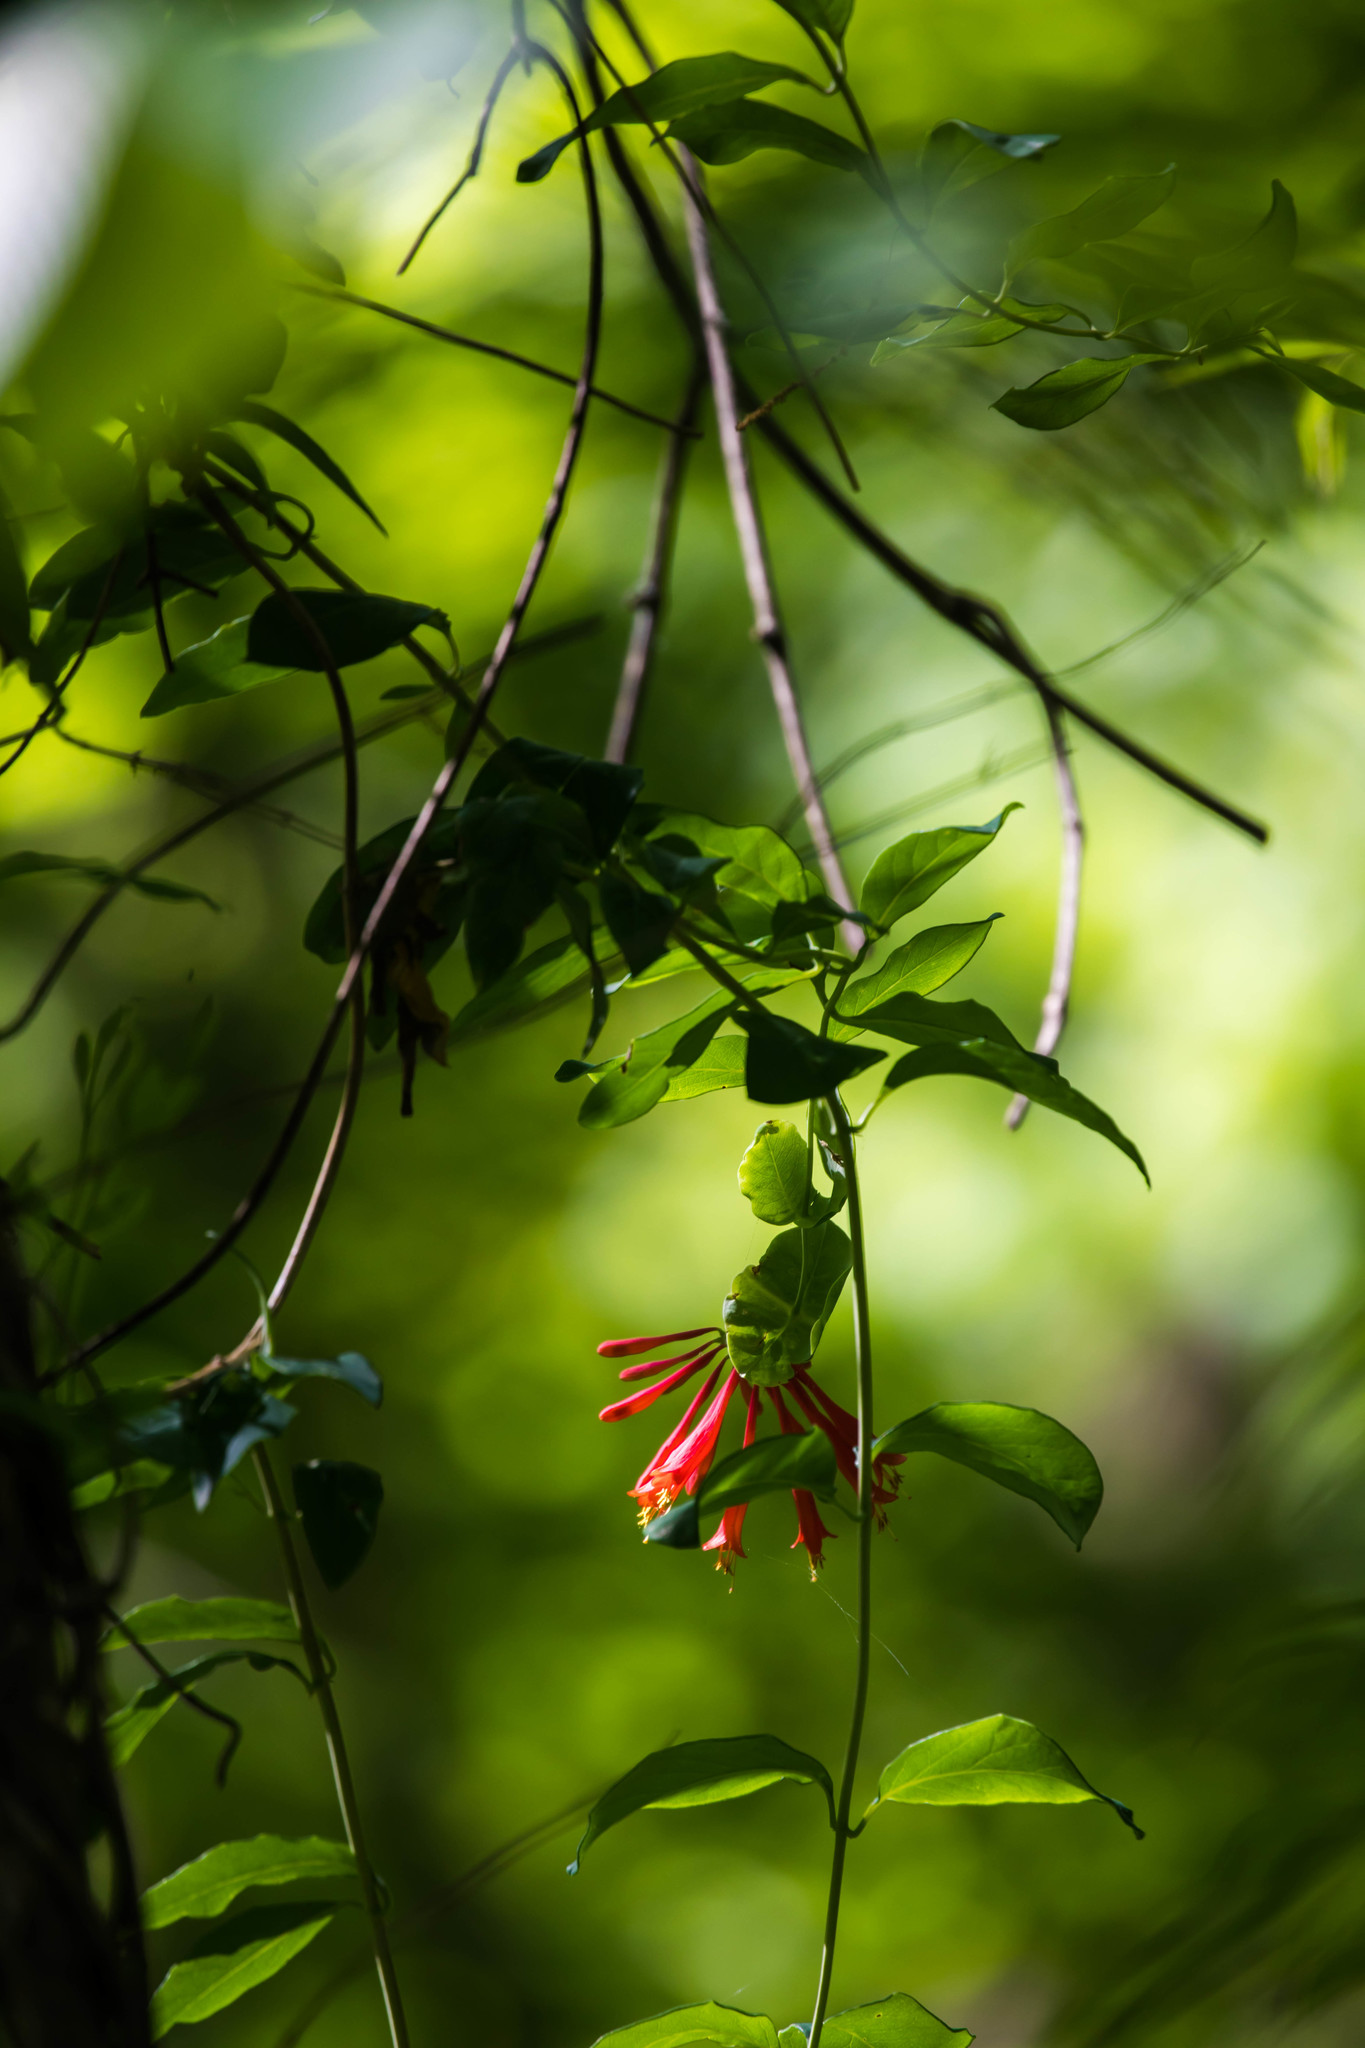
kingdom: Plantae
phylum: Tracheophyta
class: Magnoliopsida
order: Dipsacales
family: Caprifoliaceae
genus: Lonicera
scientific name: Lonicera sempervirens
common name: Coral honeysuckle
